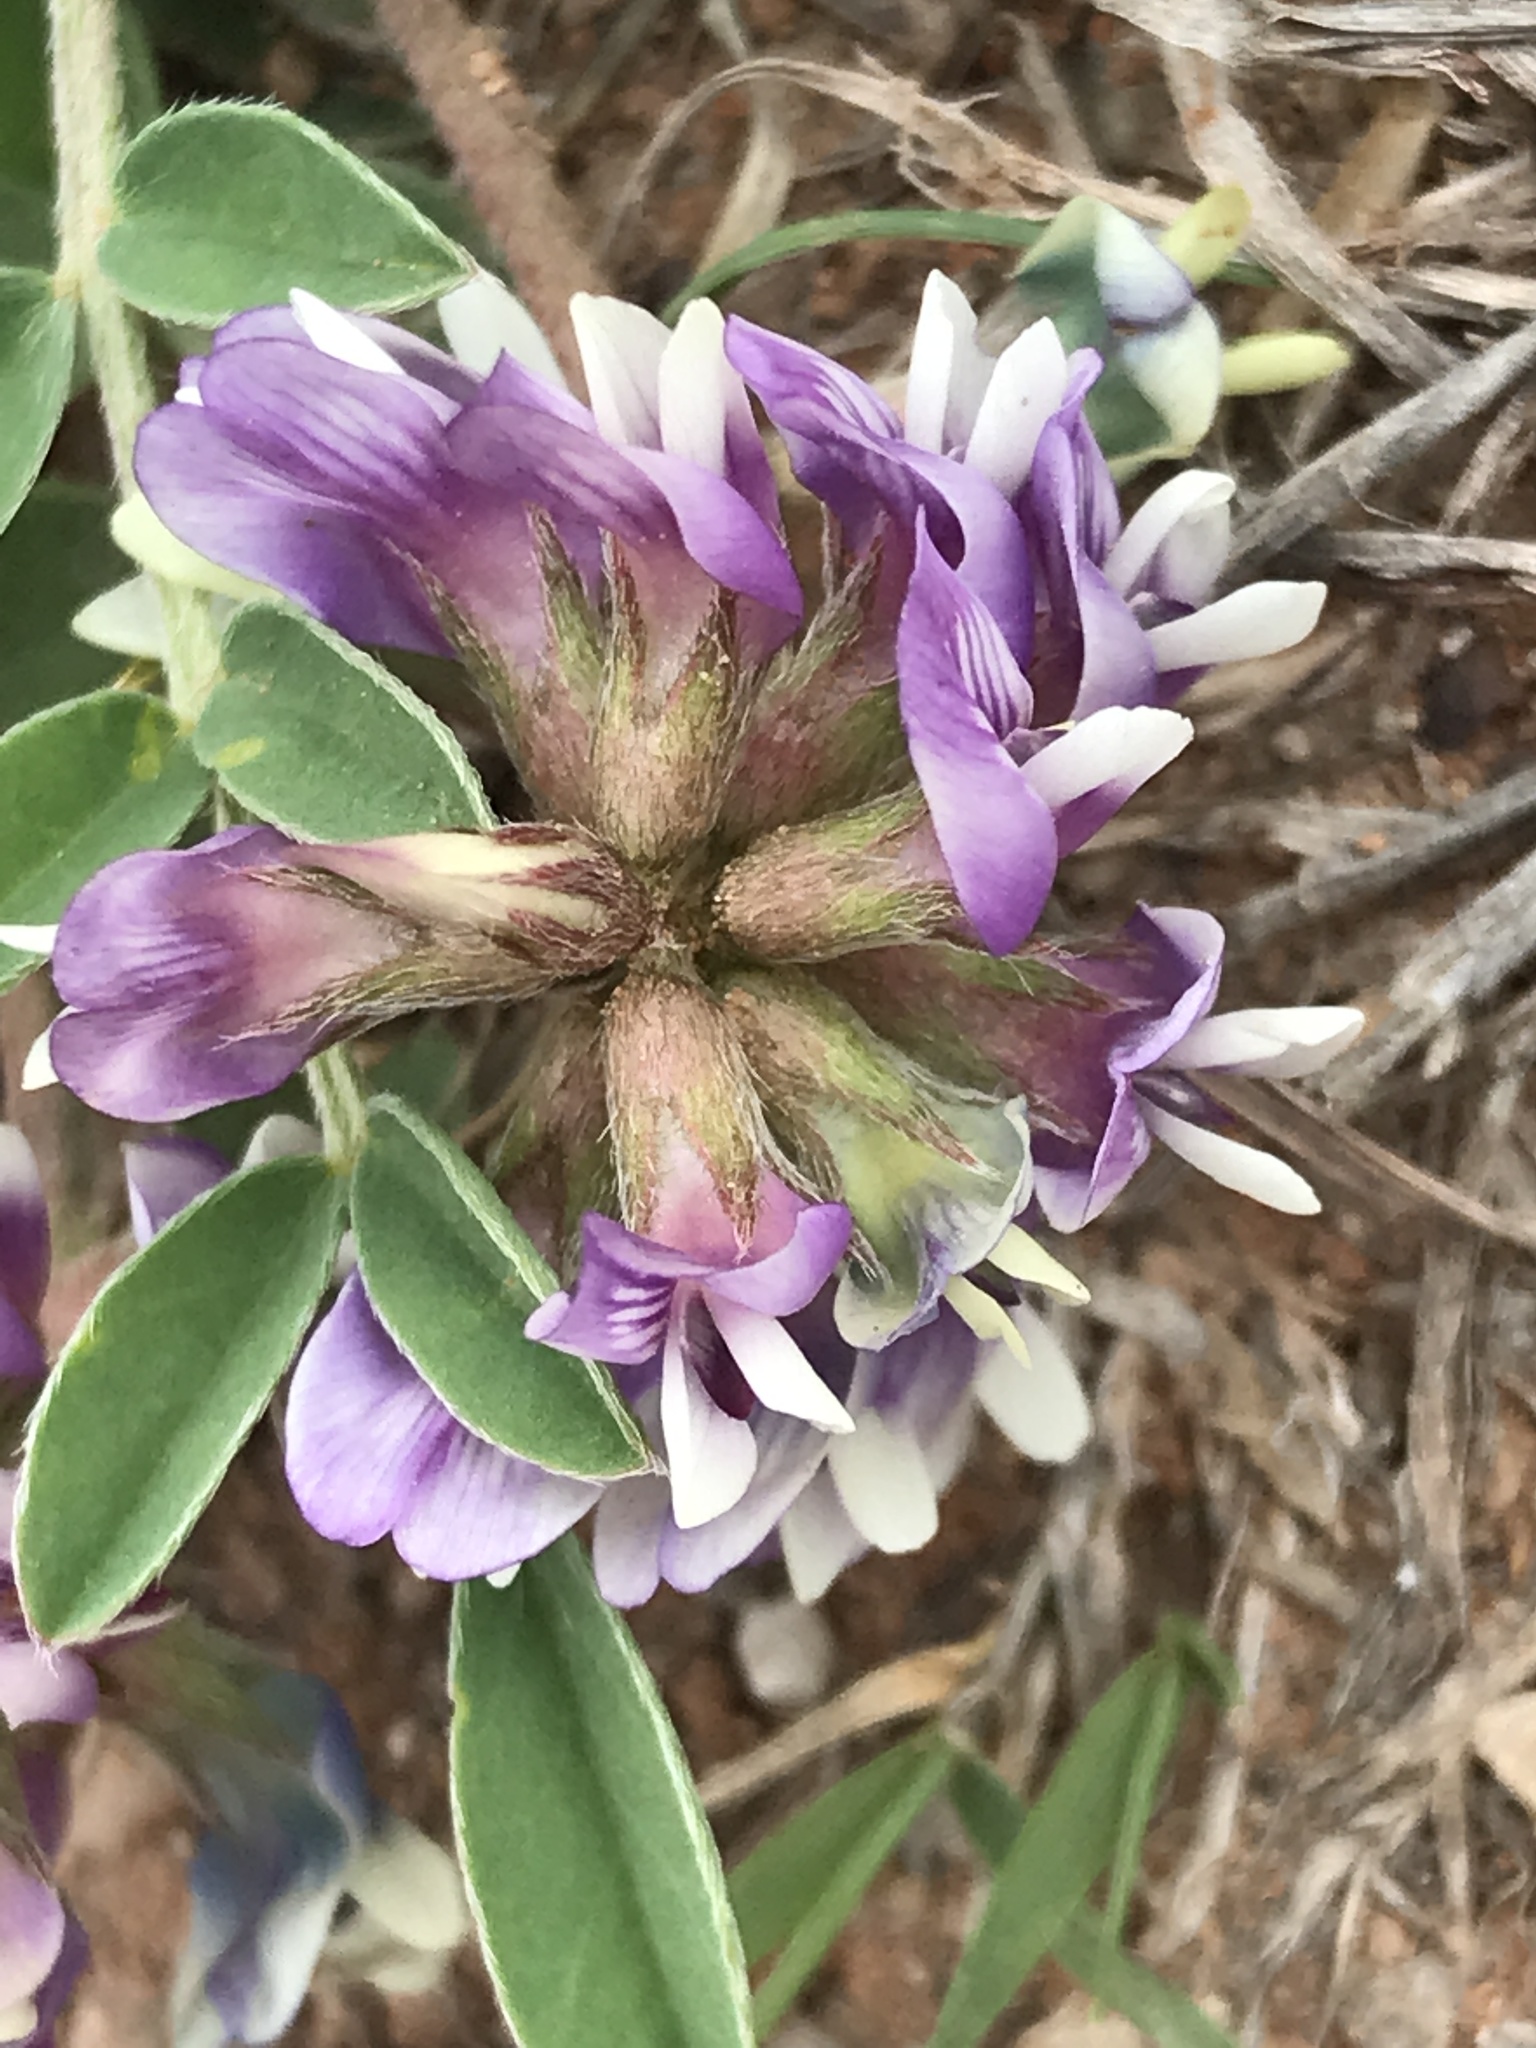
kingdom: Plantae
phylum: Tracheophyta
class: Magnoliopsida
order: Fabales
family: Fabaceae
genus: Astragalus
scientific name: Astragalus lotiflorus
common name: Lotus milk-vetch
